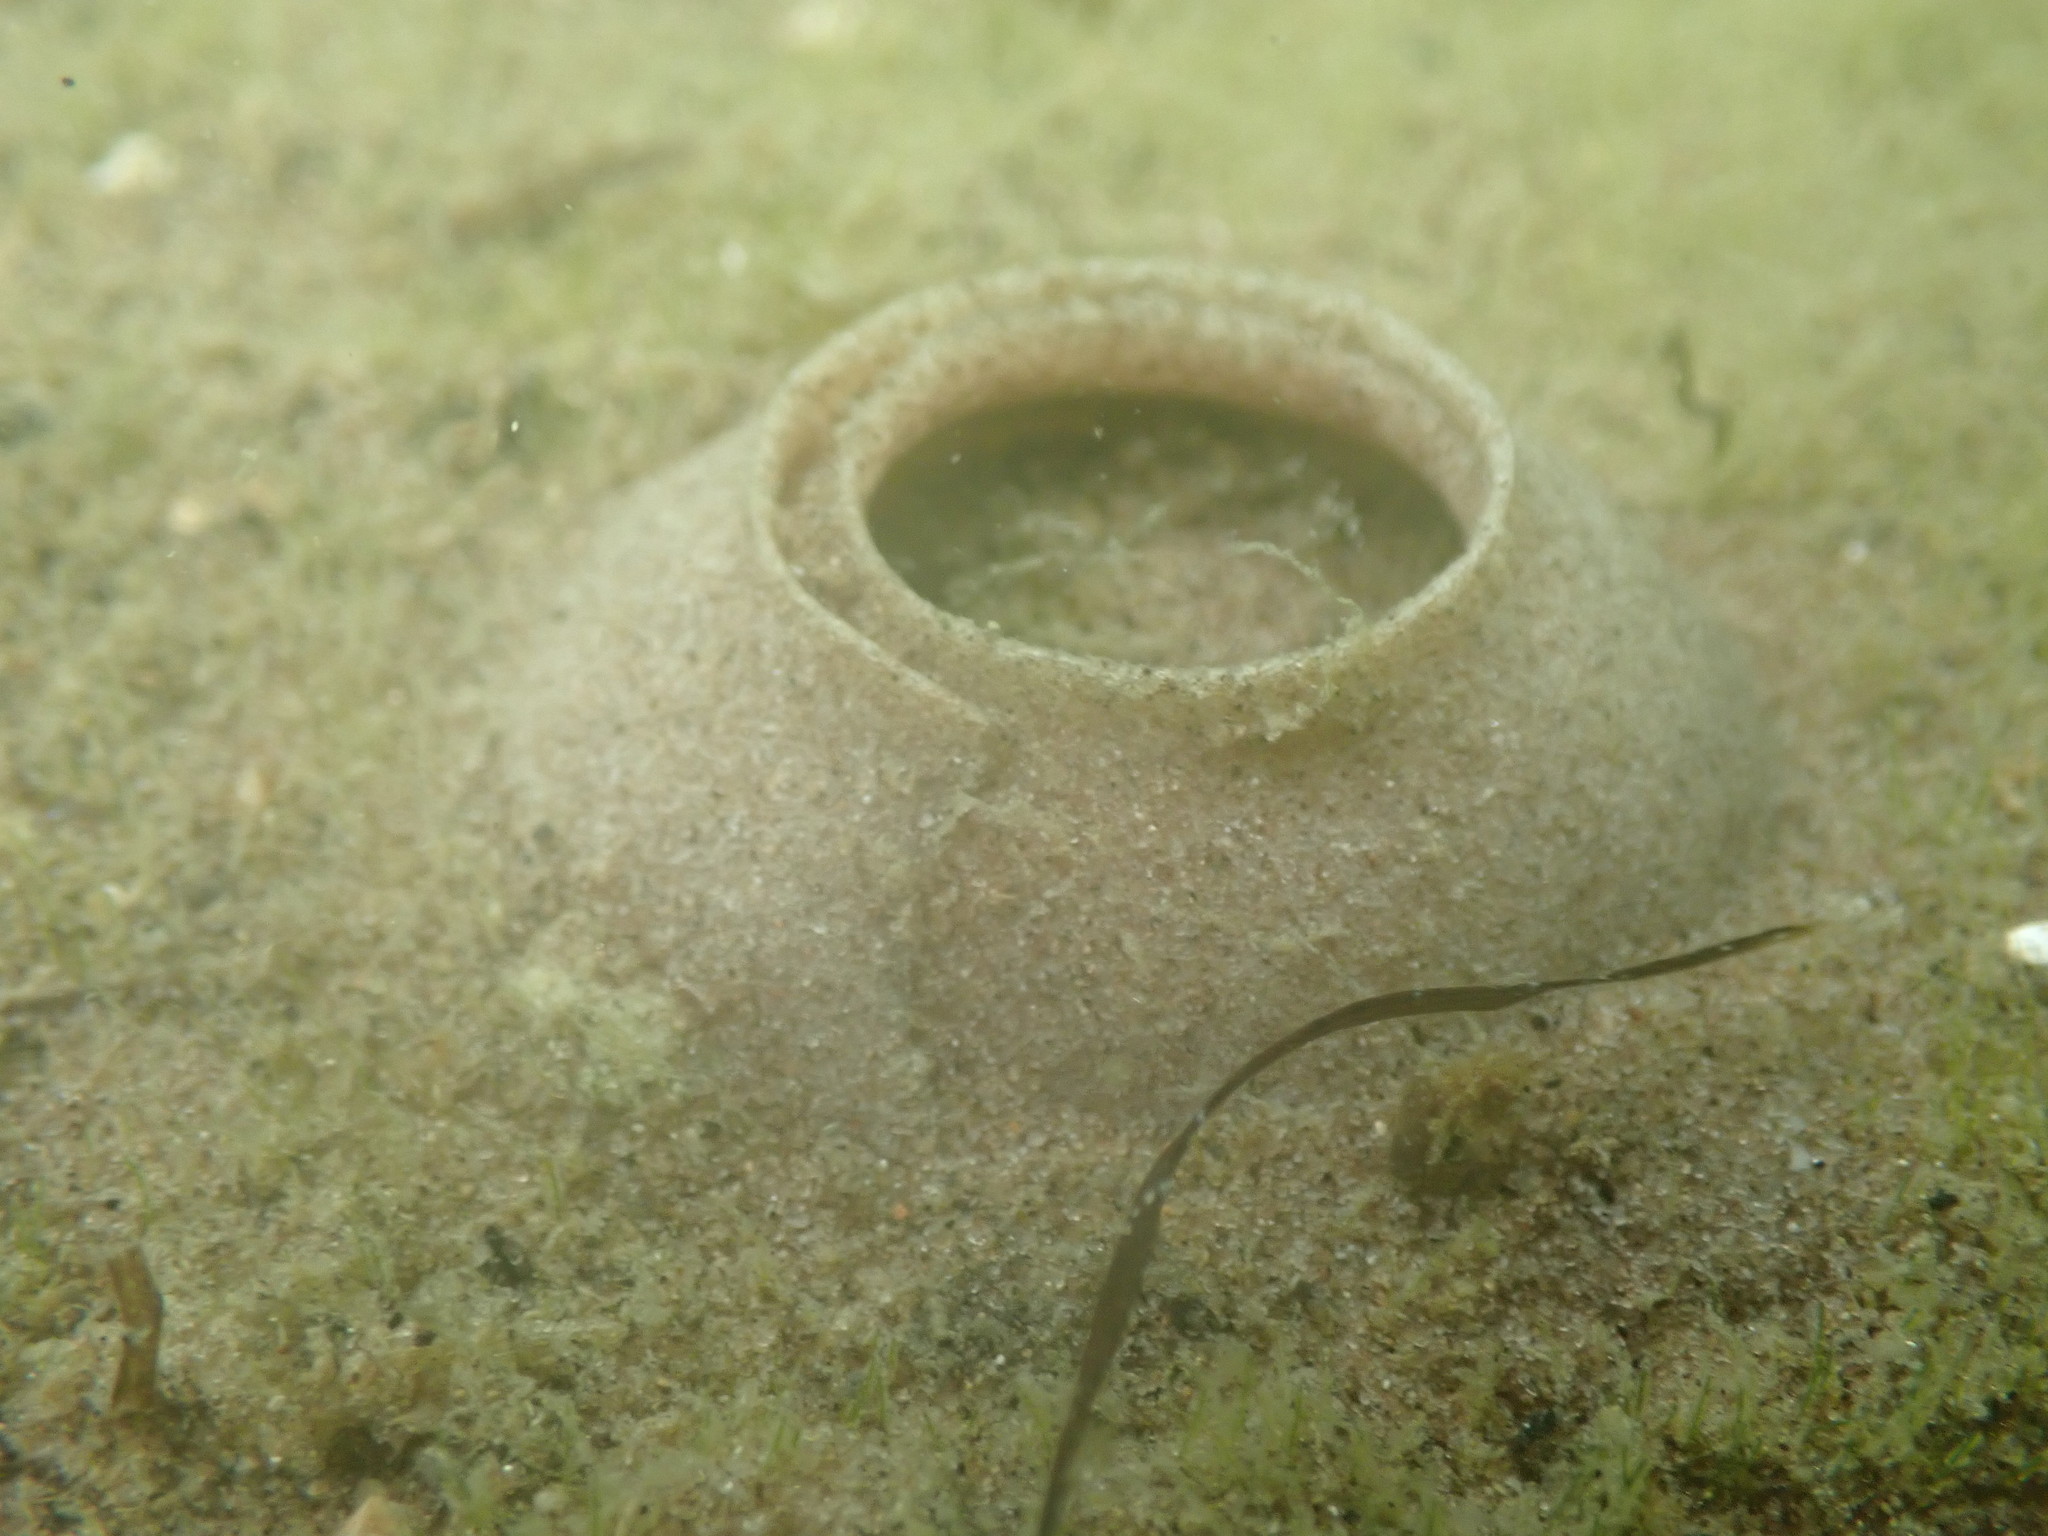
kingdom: Animalia
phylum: Mollusca
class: Gastropoda
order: Littorinimorpha
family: Naticidae
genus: Notocochlis
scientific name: Notocochlis gualteriana
